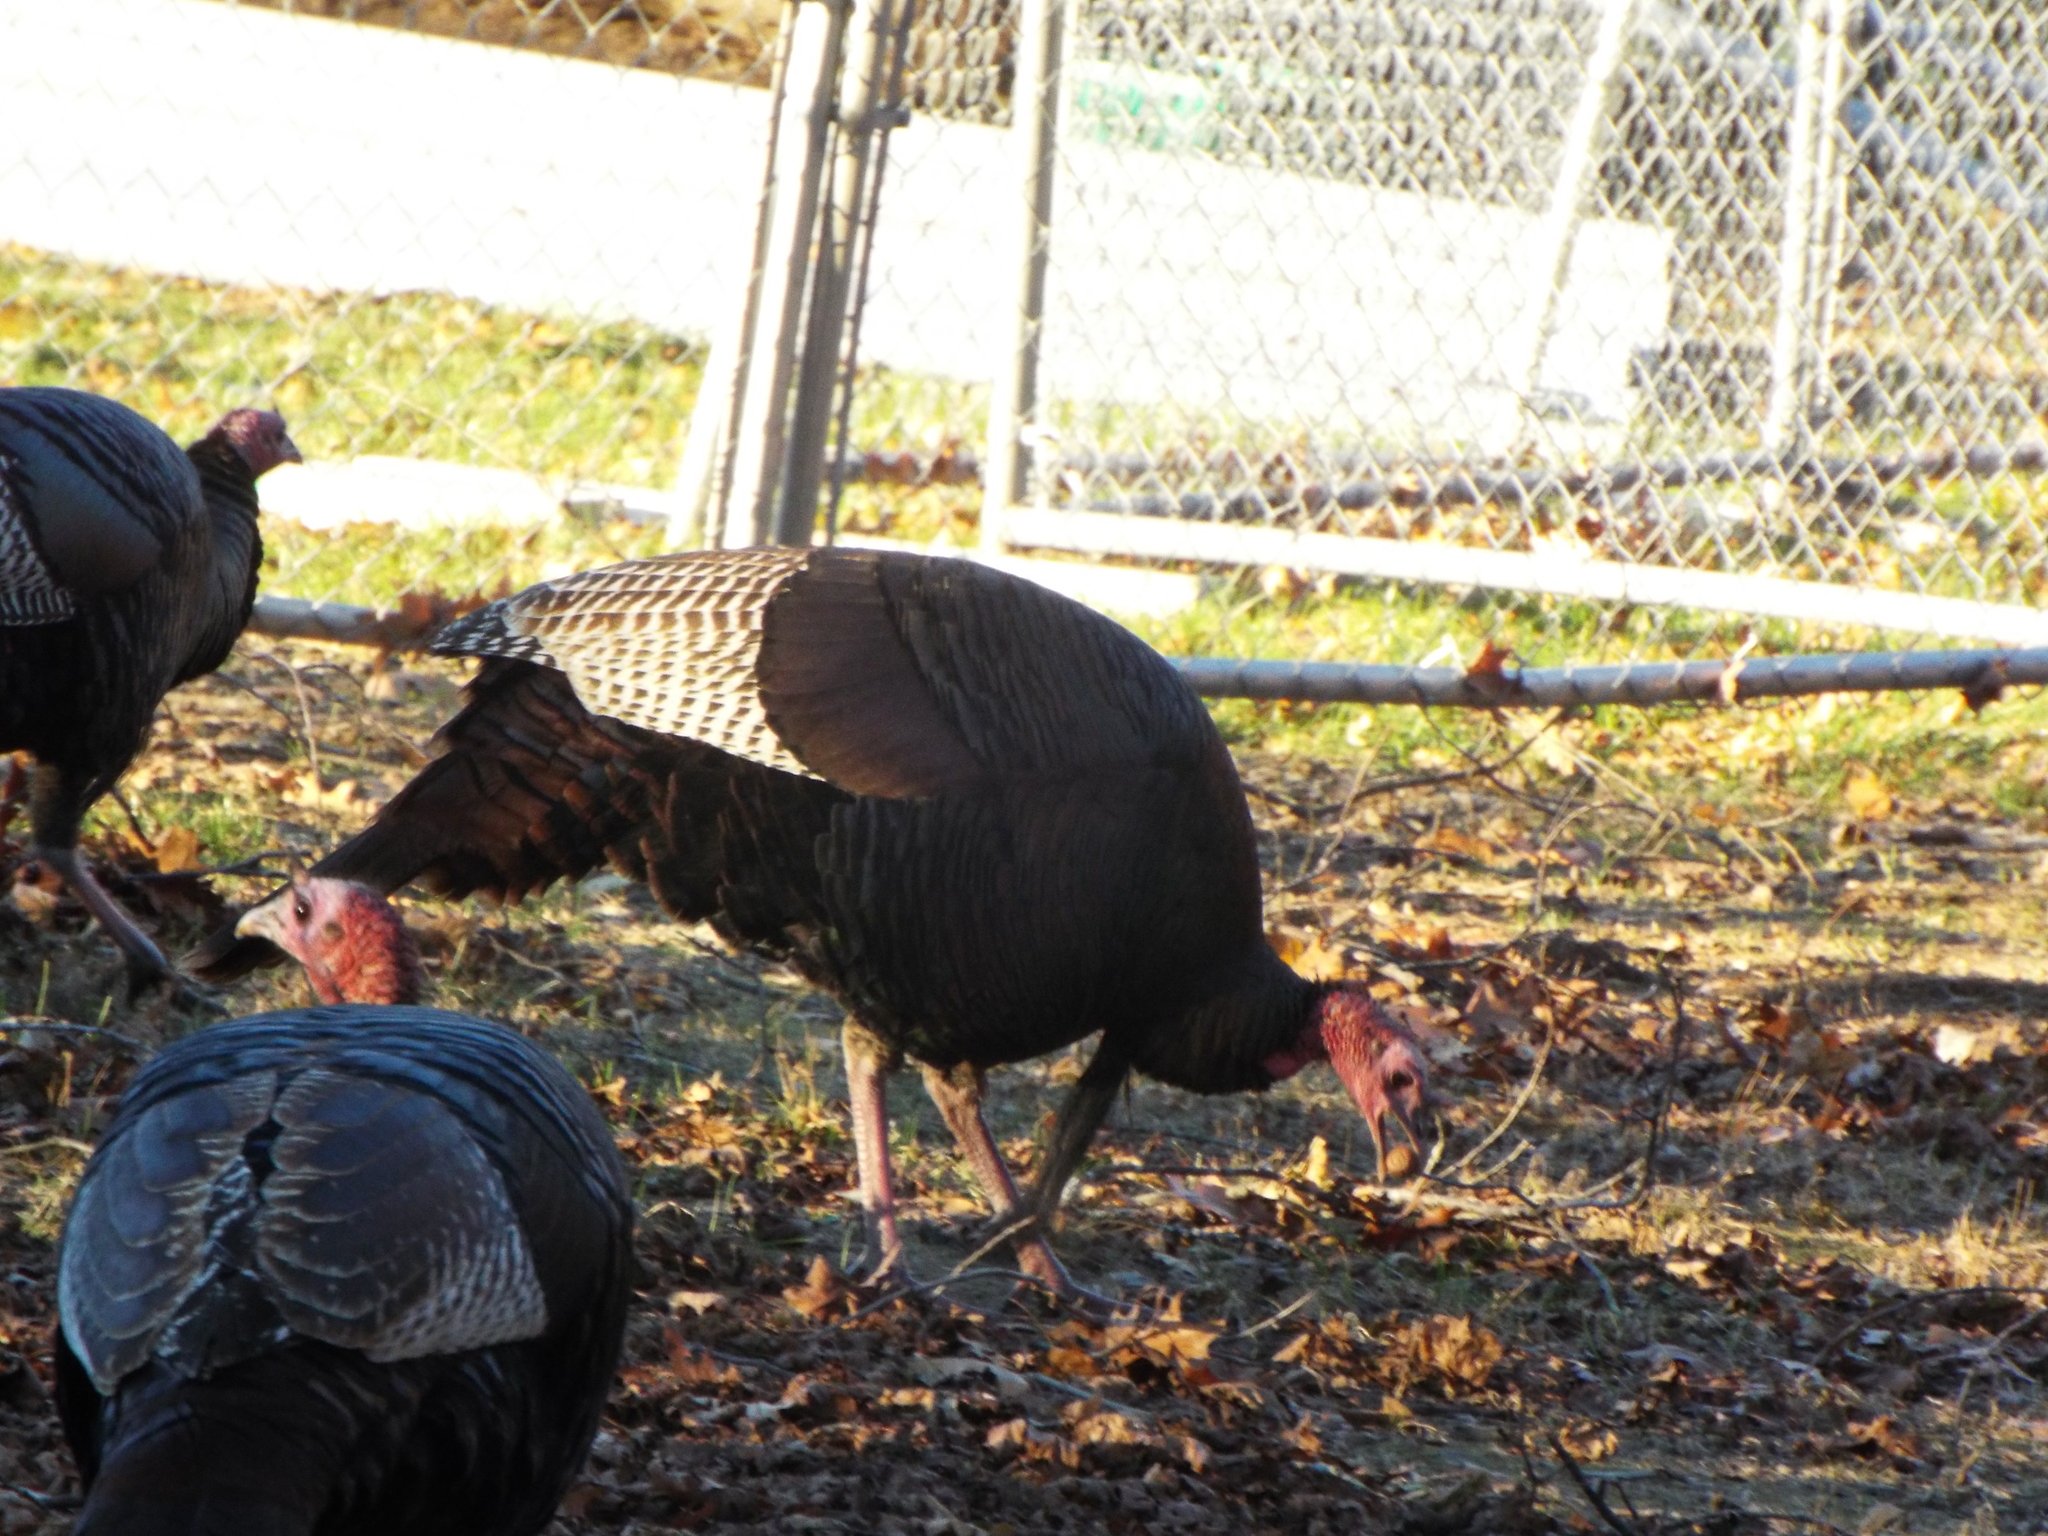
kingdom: Animalia
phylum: Chordata
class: Aves
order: Galliformes
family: Phasianidae
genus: Meleagris
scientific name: Meleagris gallopavo
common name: Wild turkey
